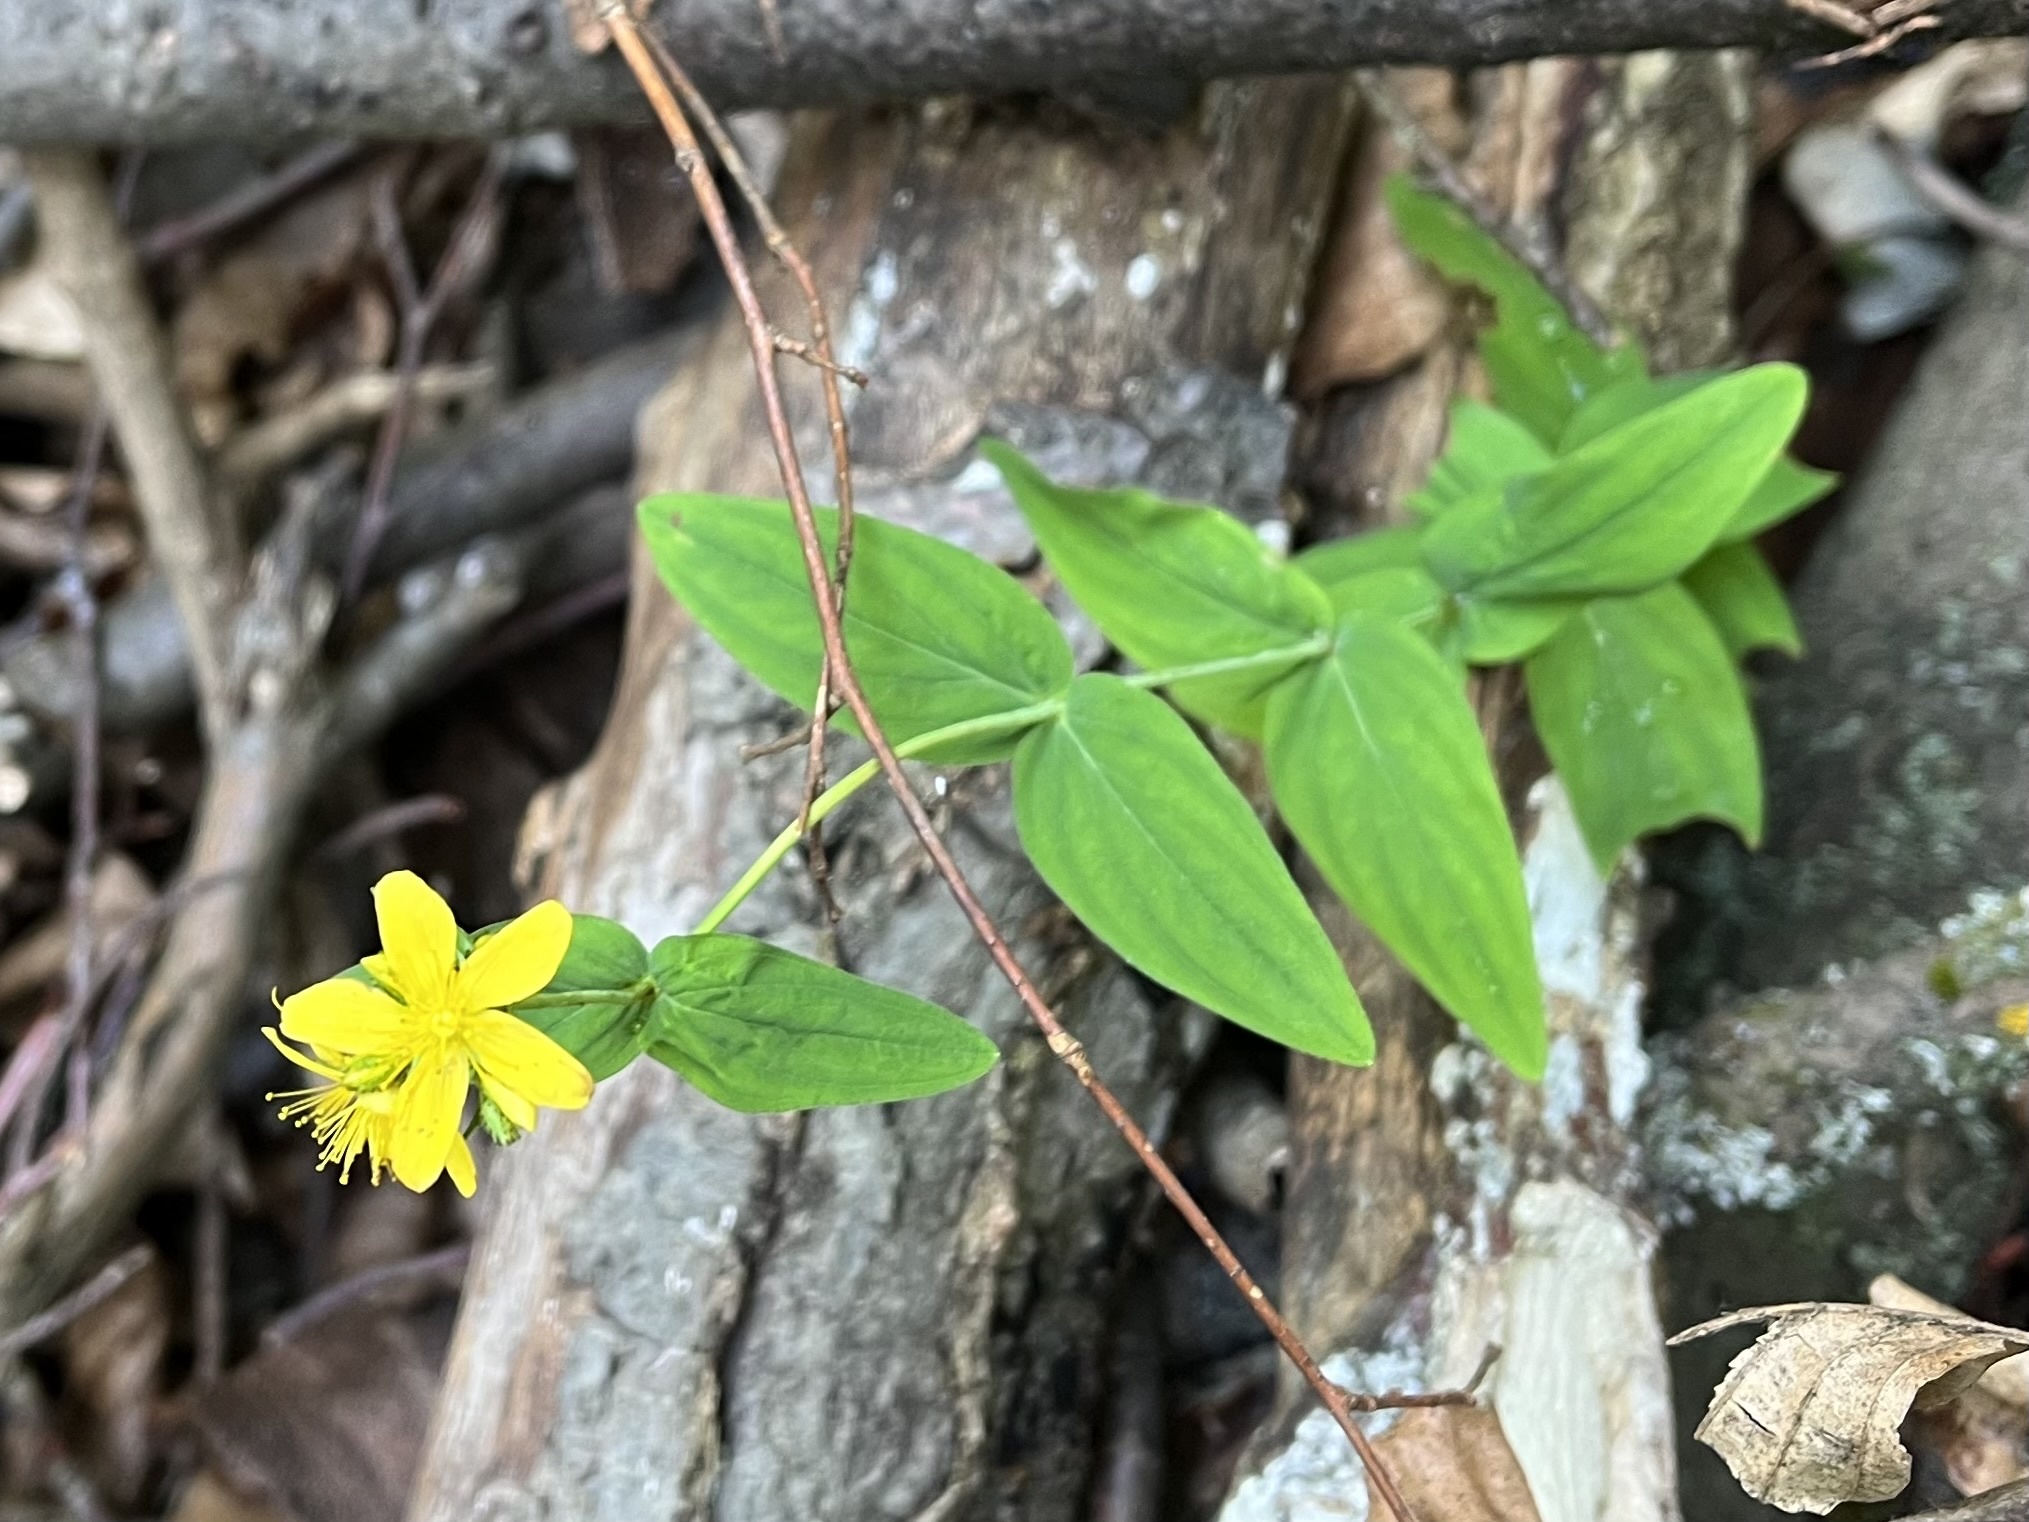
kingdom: Plantae
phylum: Tracheophyta
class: Magnoliopsida
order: Malpighiales
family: Hypericaceae
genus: Hypericum
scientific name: Hypericum montanum
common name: Pale st. john's-wort
